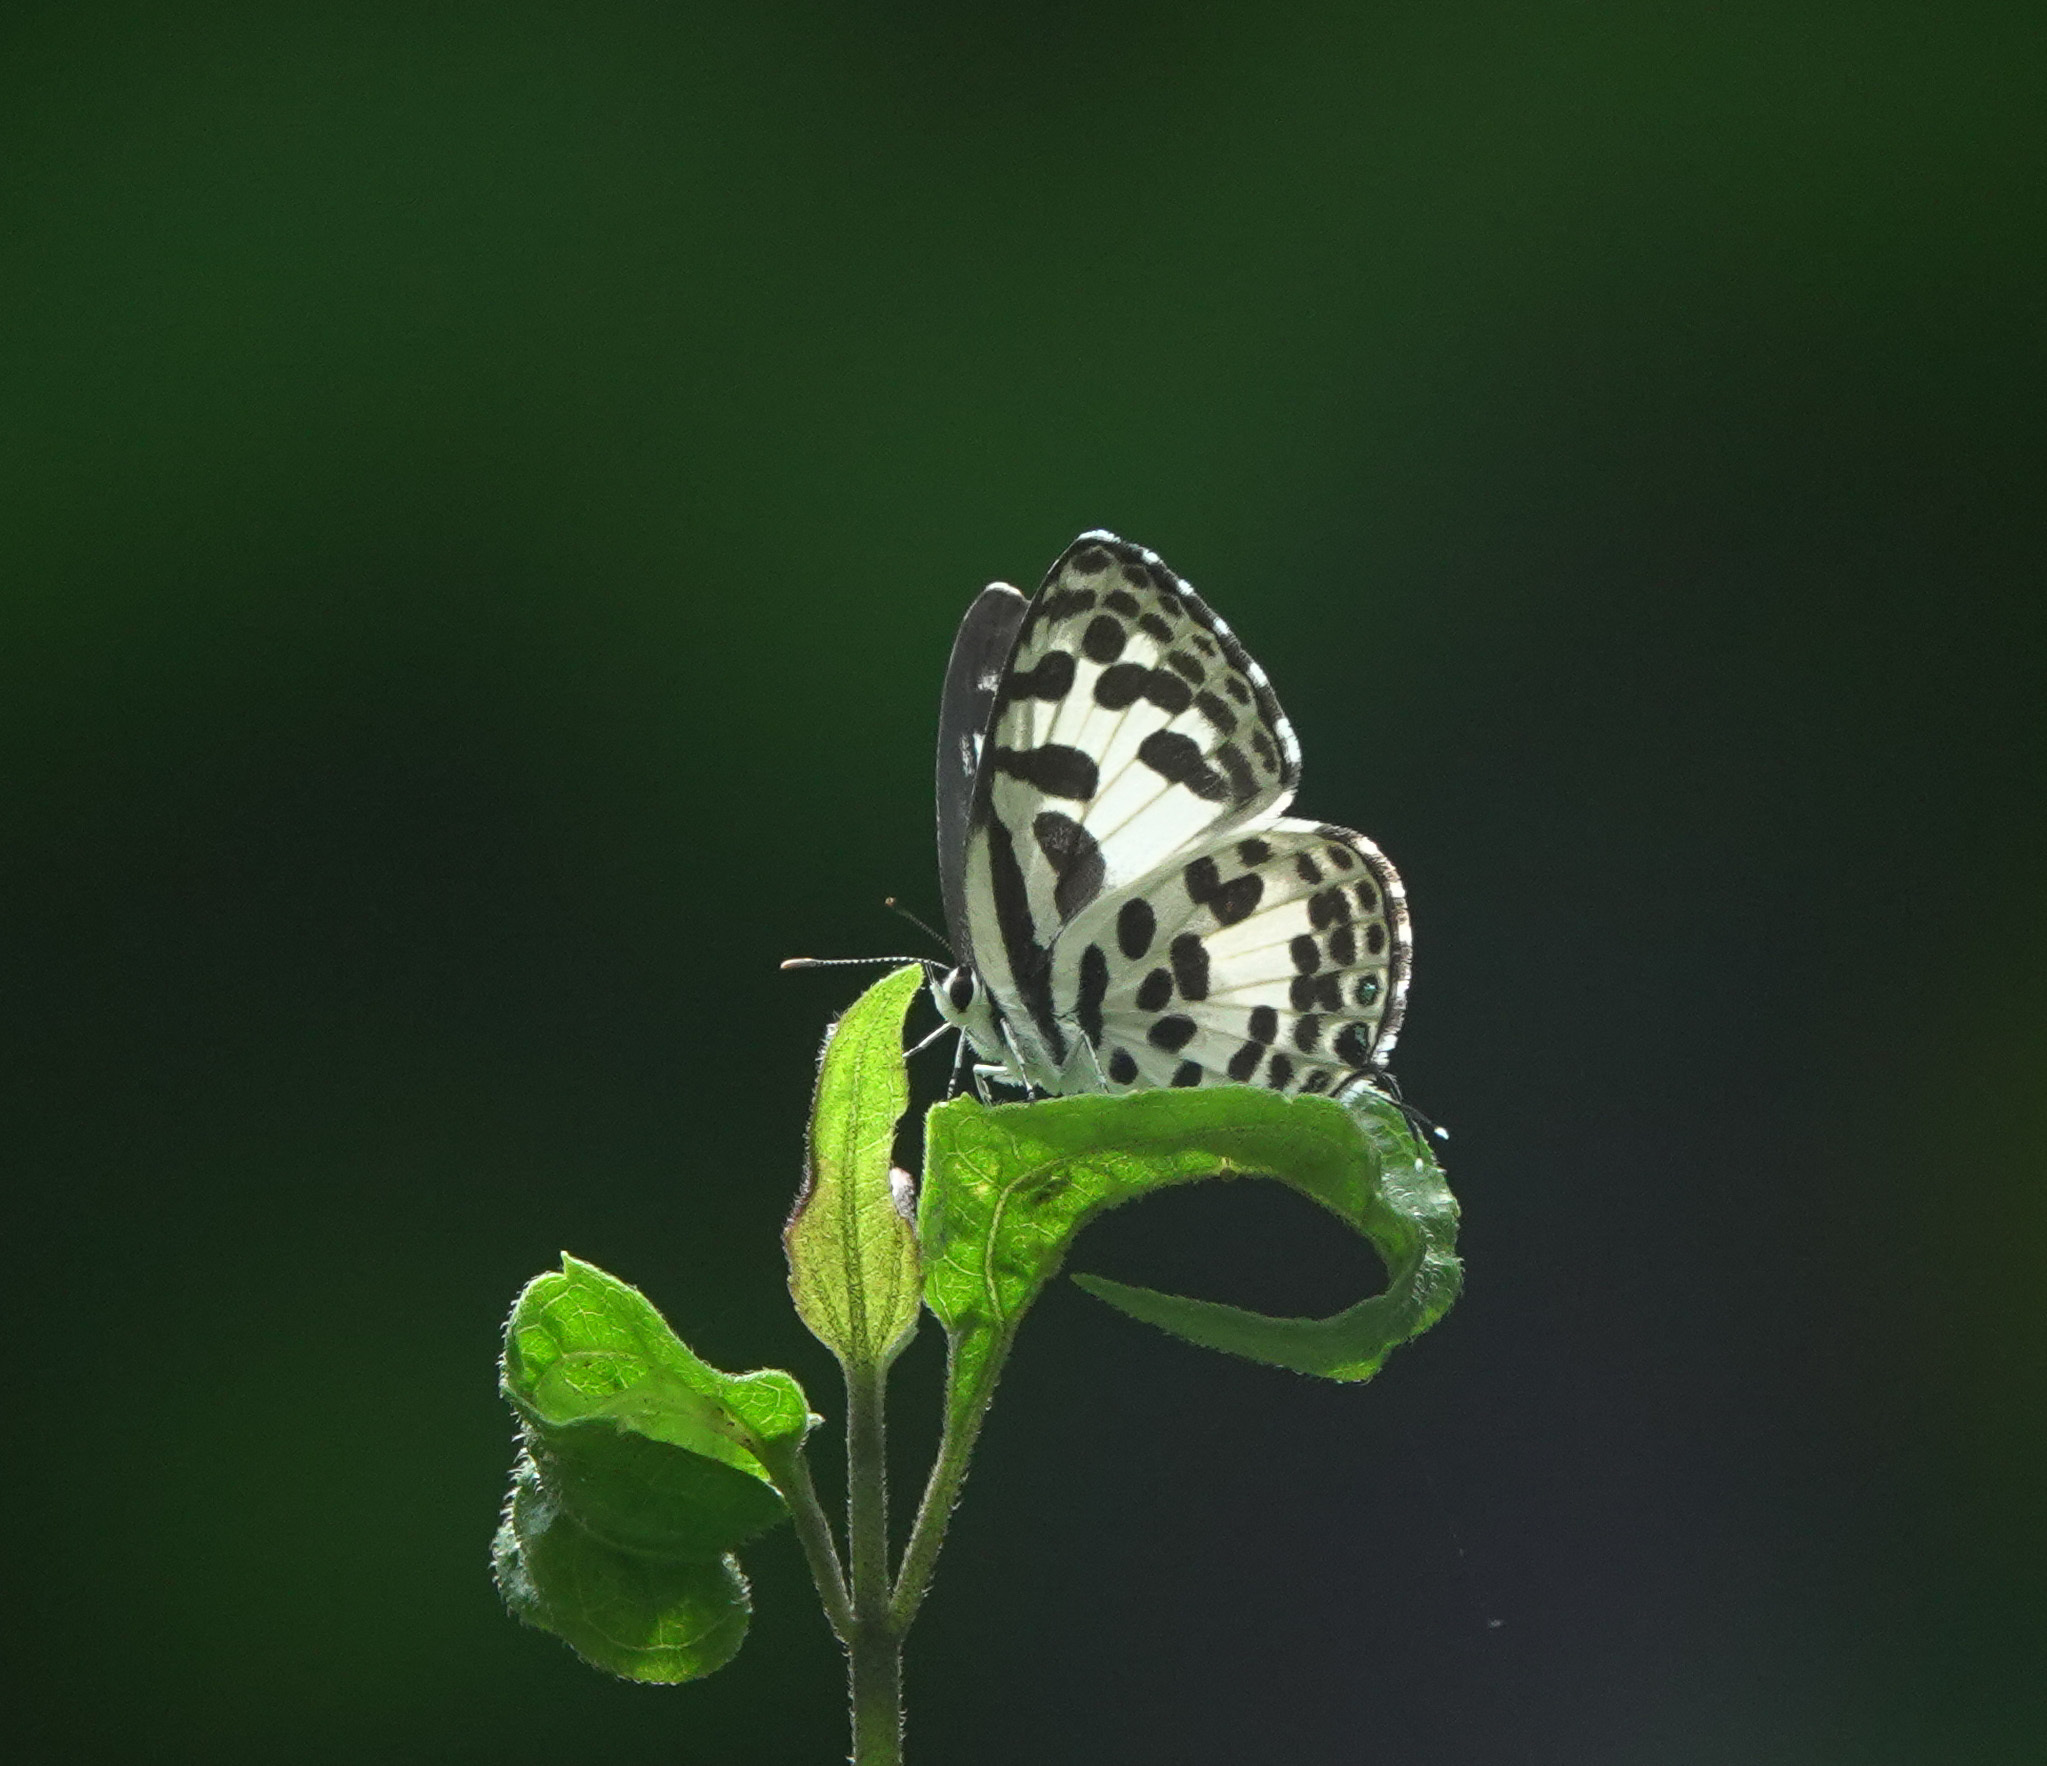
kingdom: Animalia
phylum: Arthropoda
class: Insecta
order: Lepidoptera
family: Lycaenidae
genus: Castalius
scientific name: Castalius rosimon
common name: Common pierrot
